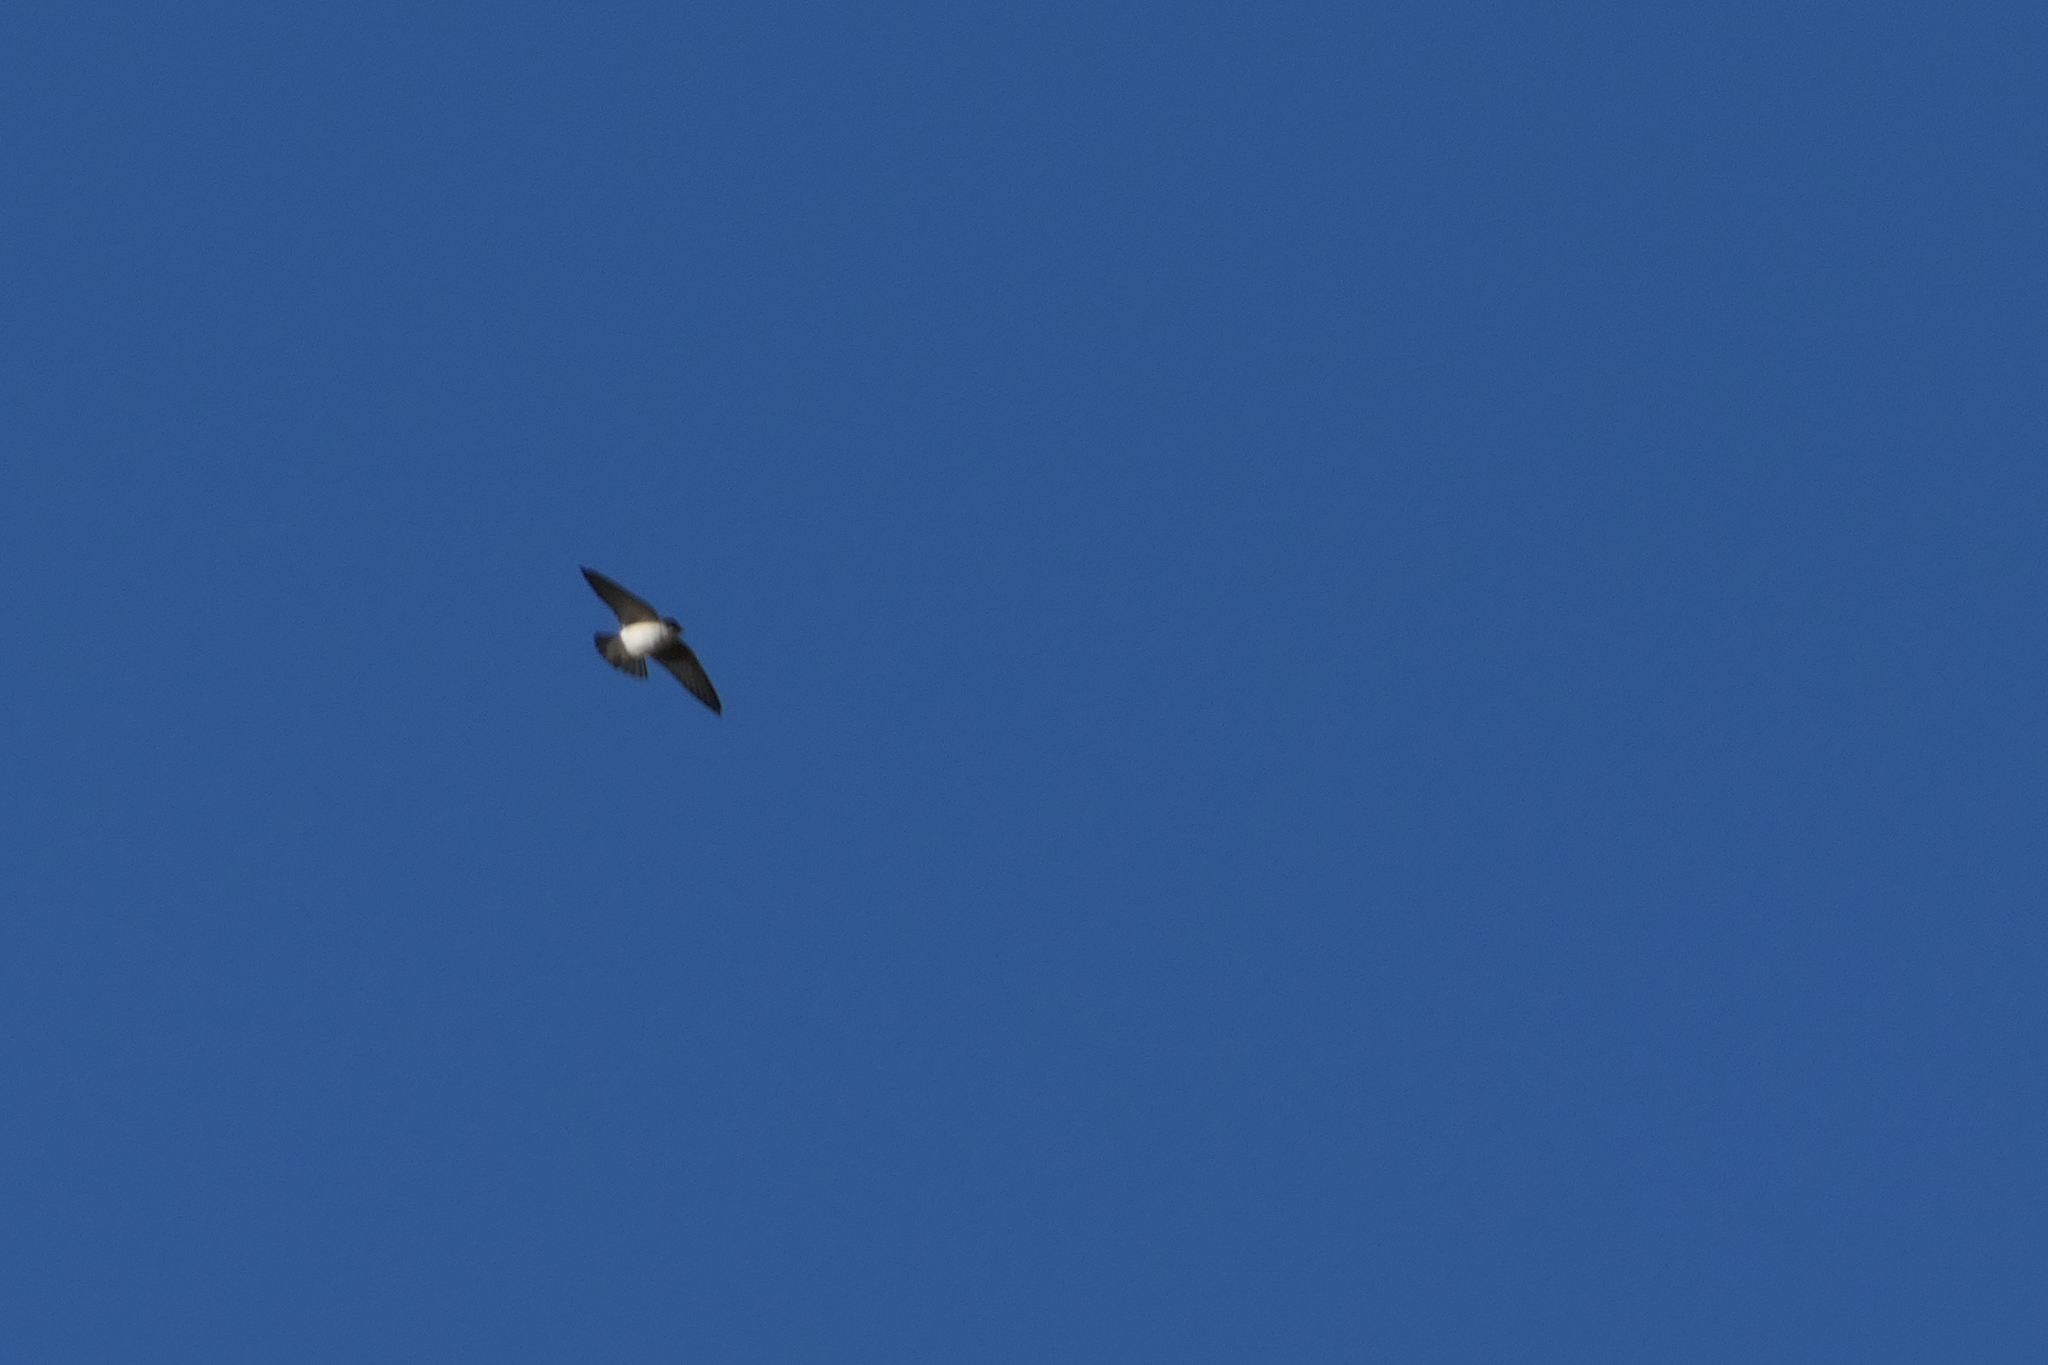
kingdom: Animalia
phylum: Chordata
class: Aves
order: Passeriformes
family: Hirundinidae
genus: Tachycineta
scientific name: Tachycineta thalassina
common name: Violet-green swallow
